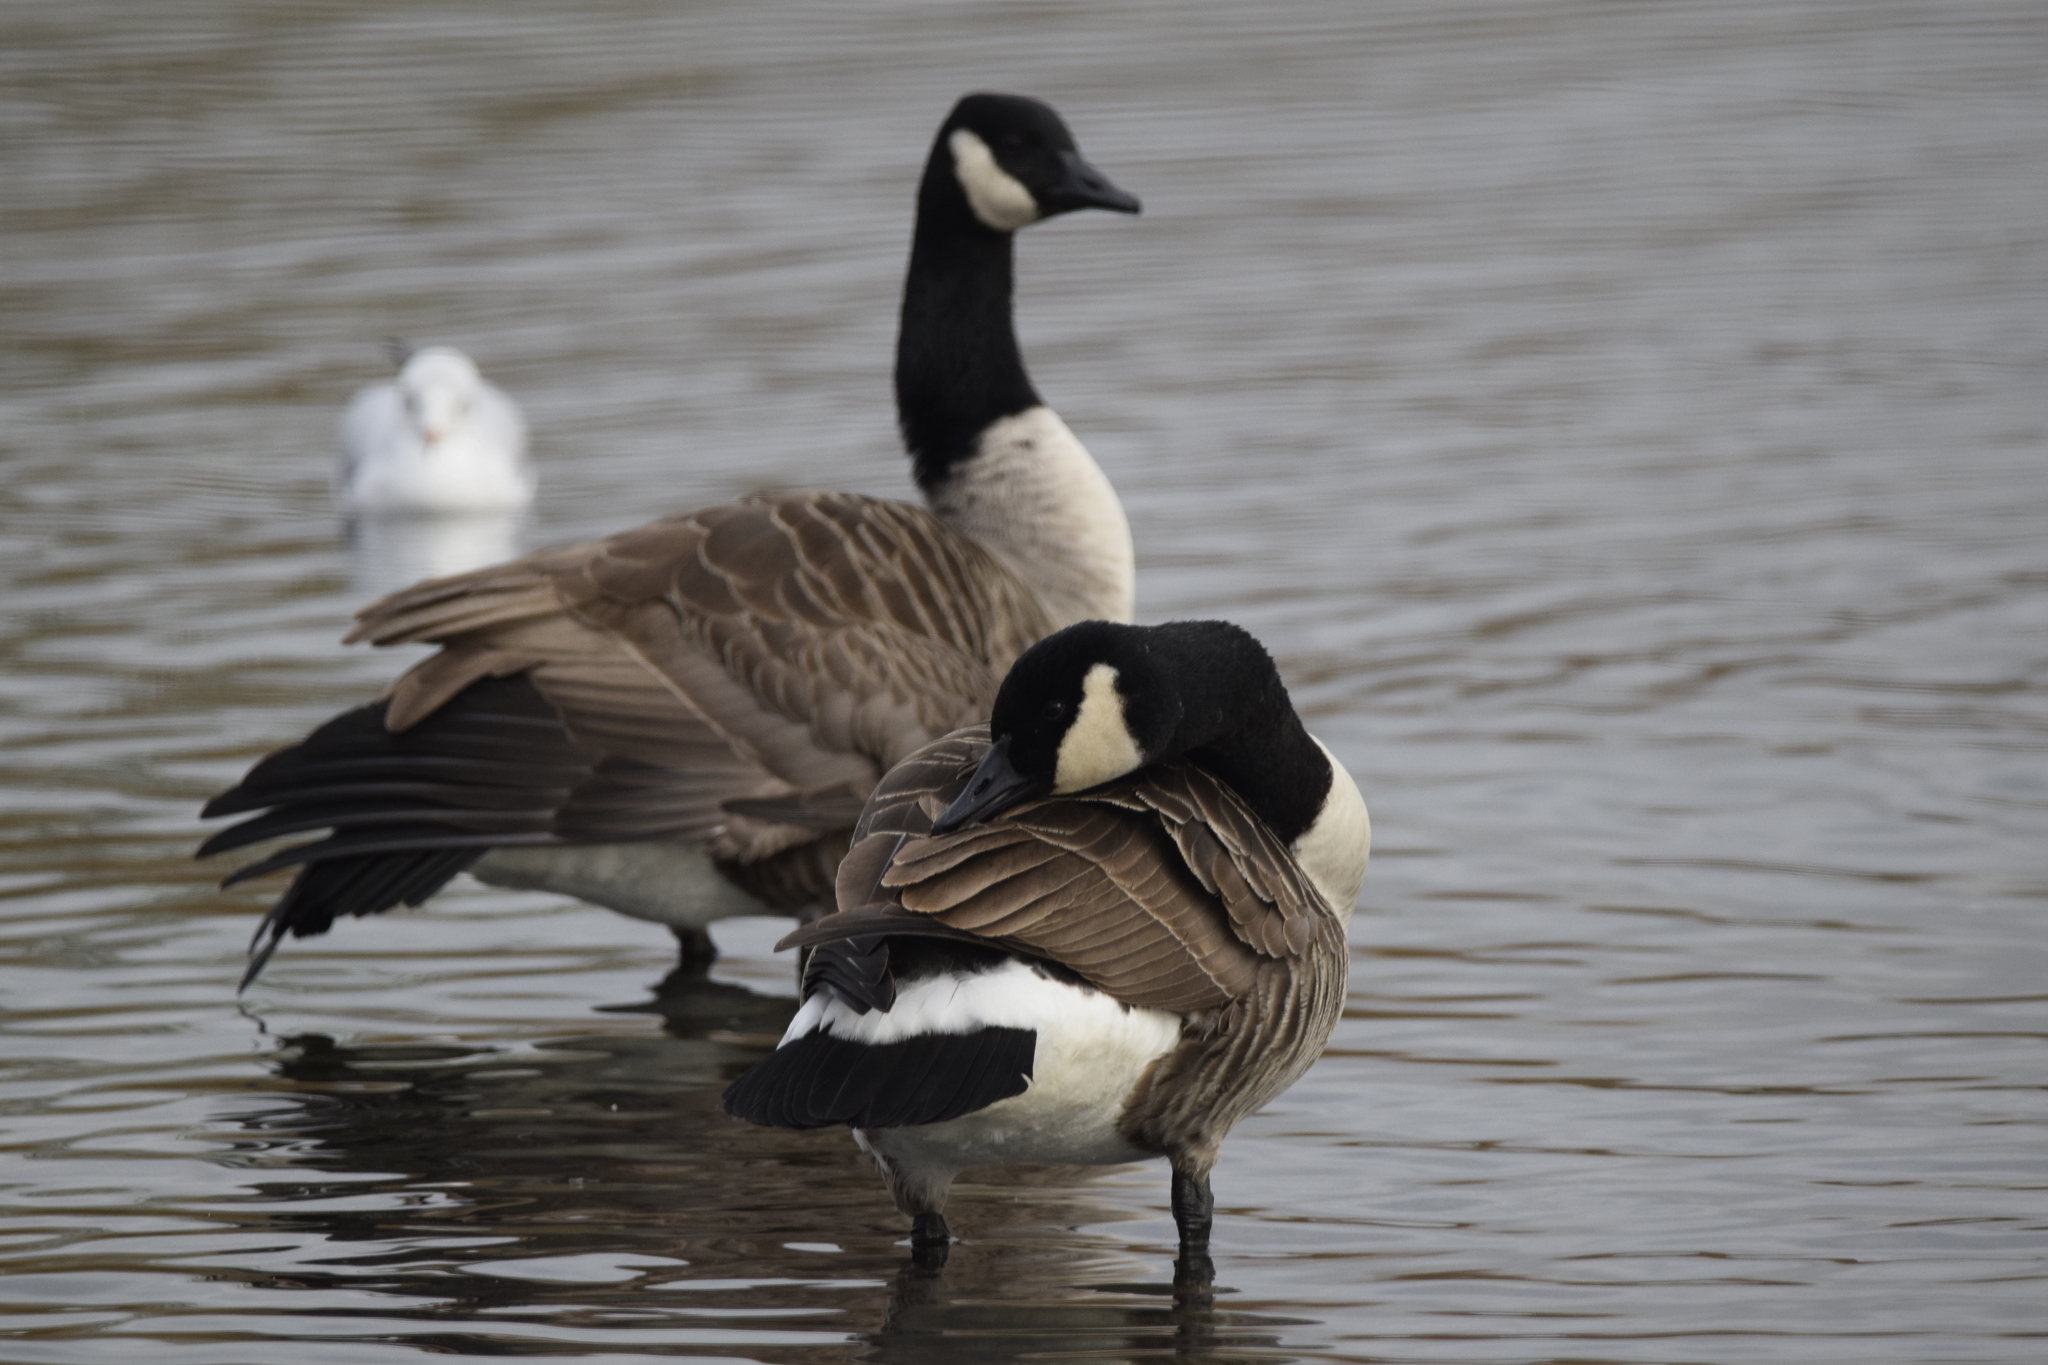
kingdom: Animalia
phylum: Chordata
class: Aves
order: Anseriformes
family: Anatidae
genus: Branta
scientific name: Branta canadensis
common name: Canada goose
